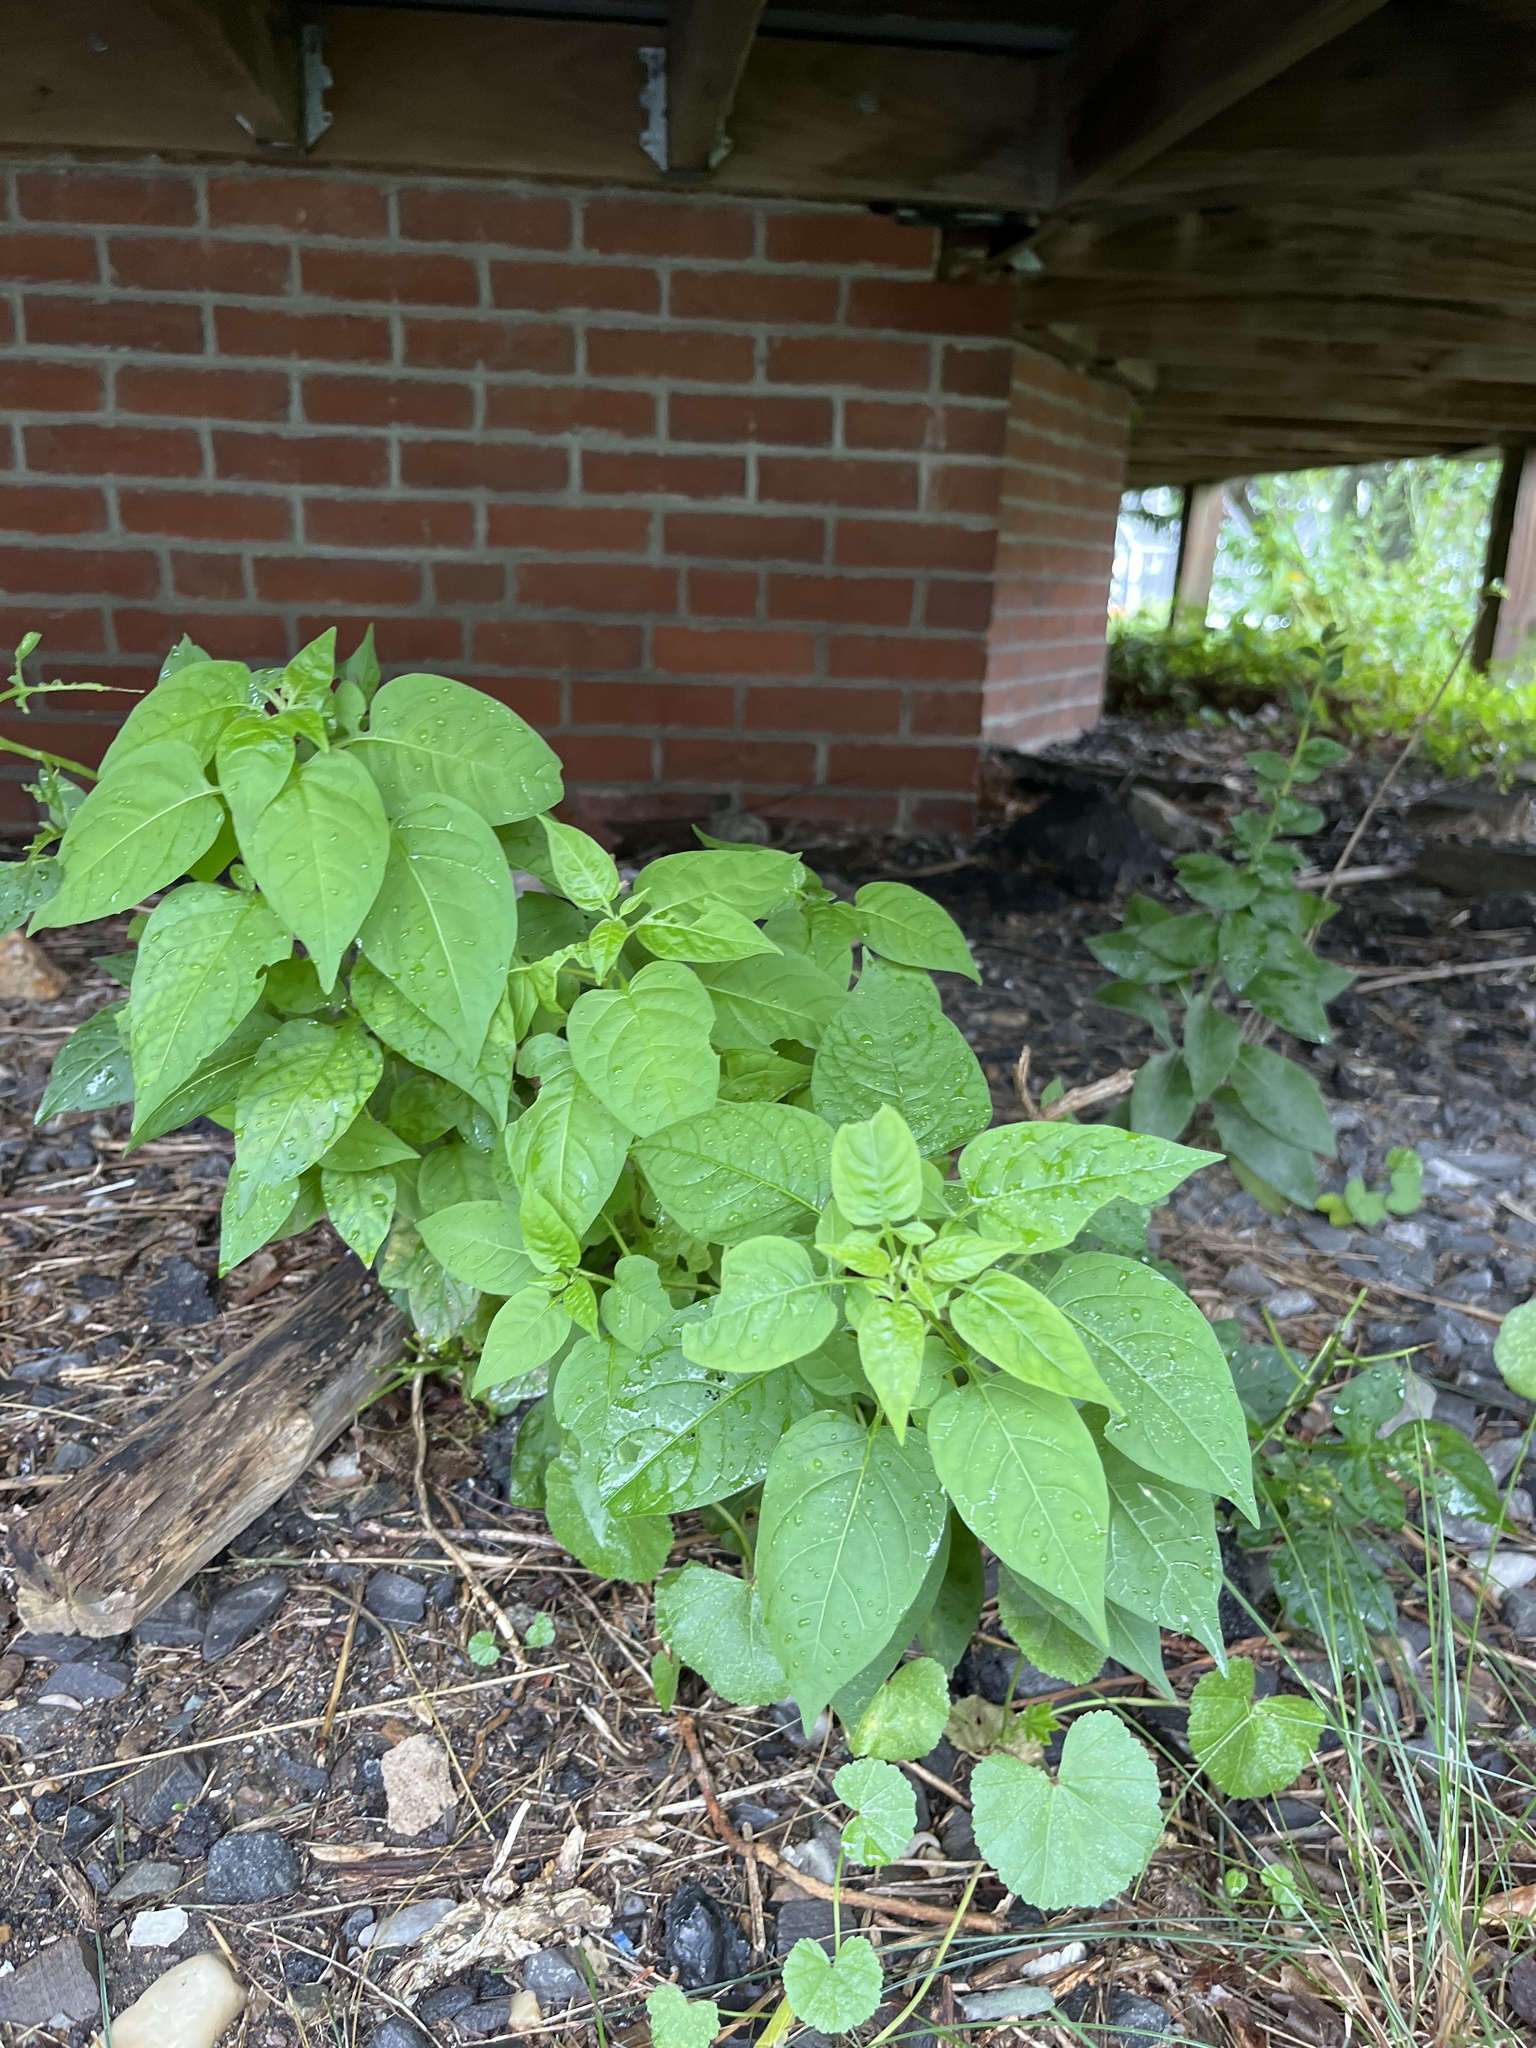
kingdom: Plantae
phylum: Tracheophyta
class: Magnoliopsida
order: Solanales
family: Solanaceae
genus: Solanum
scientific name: Solanum dulcamara
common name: Climbing nightshade
